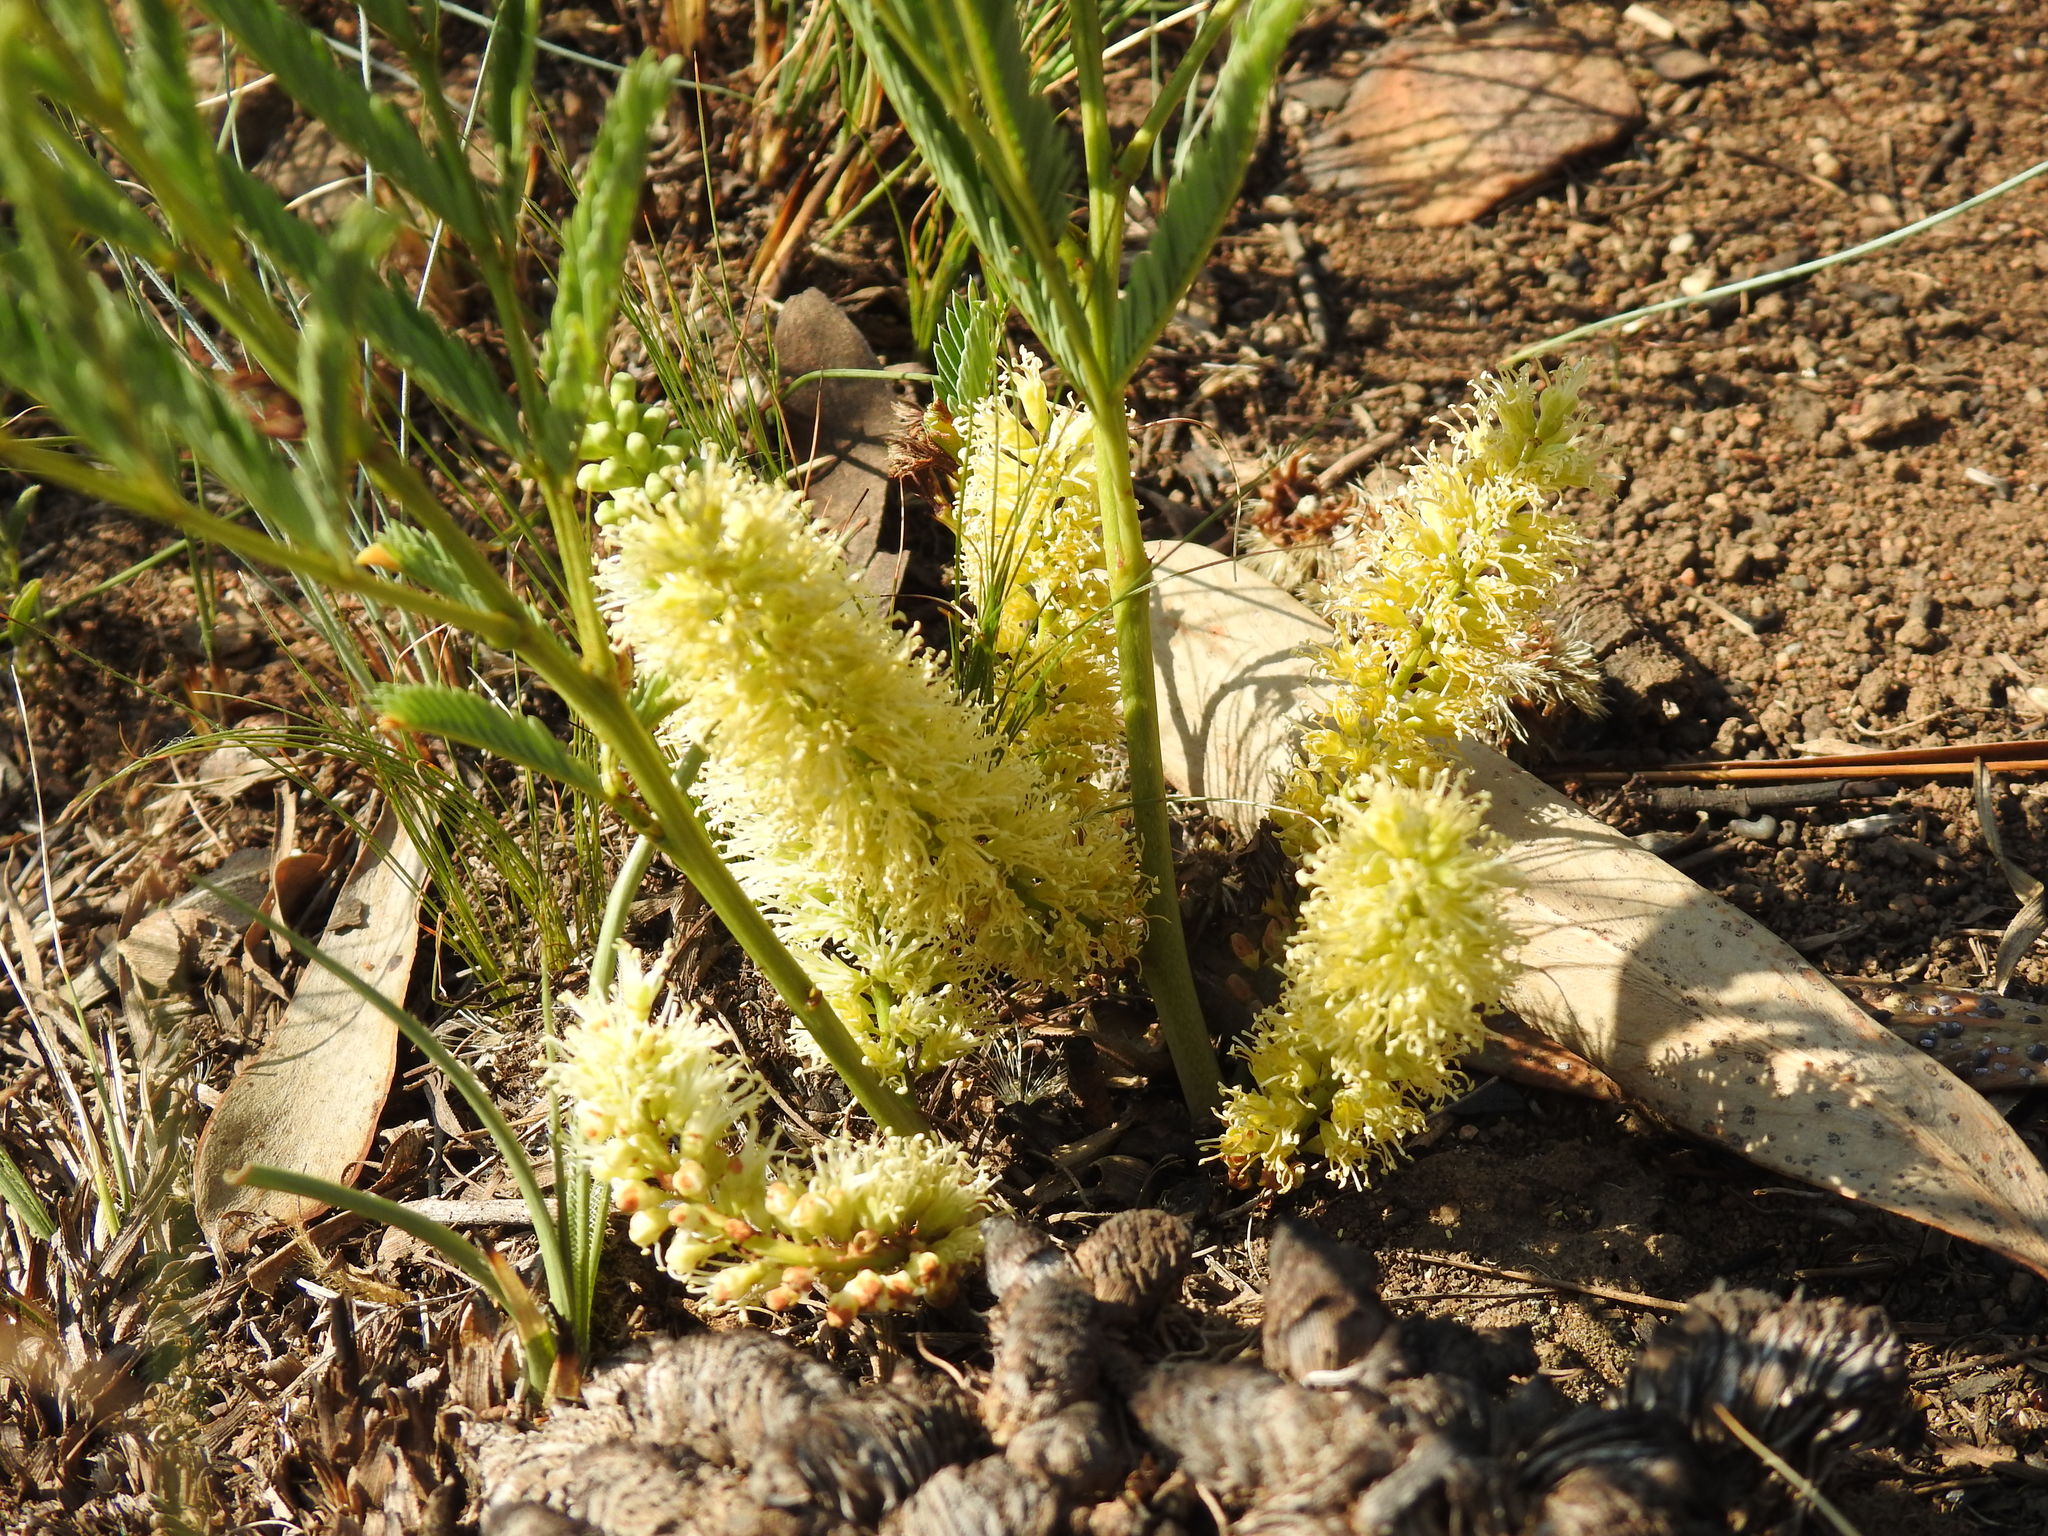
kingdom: Plantae
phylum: Tracheophyta
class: Magnoliopsida
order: Fabales
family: Fabaceae
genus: Elephantorrhiza
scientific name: Elephantorrhiza elephantina
